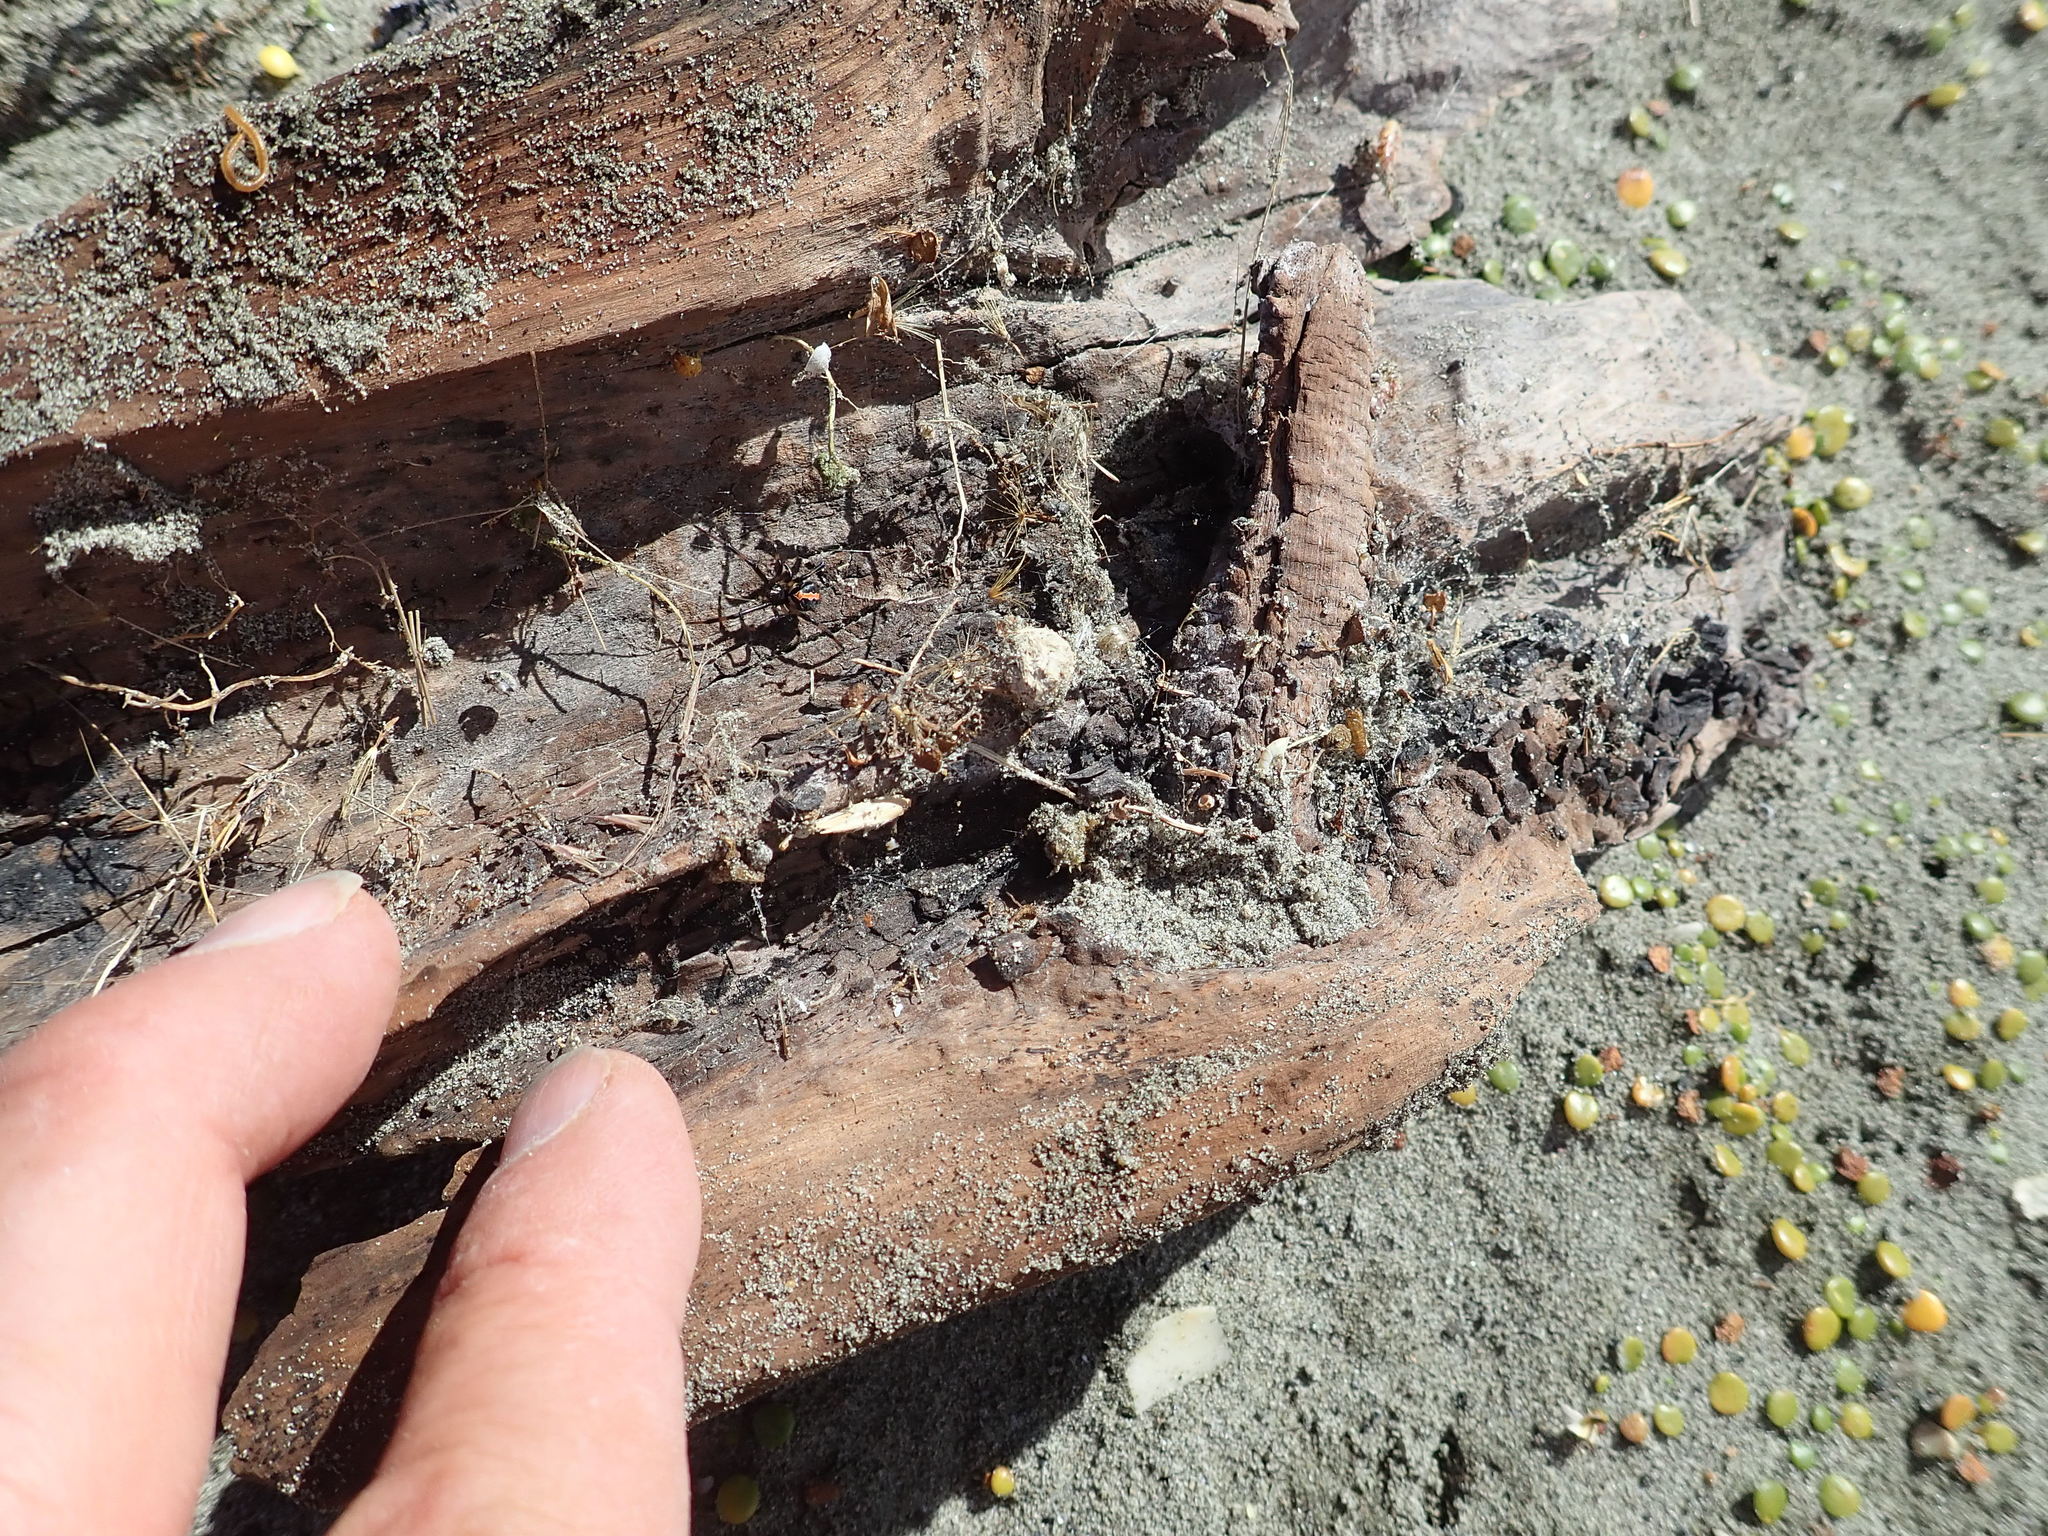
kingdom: Animalia
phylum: Arthropoda
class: Arachnida
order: Araneae
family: Theridiidae
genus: Latrodectus
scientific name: Latrodectus katipo
